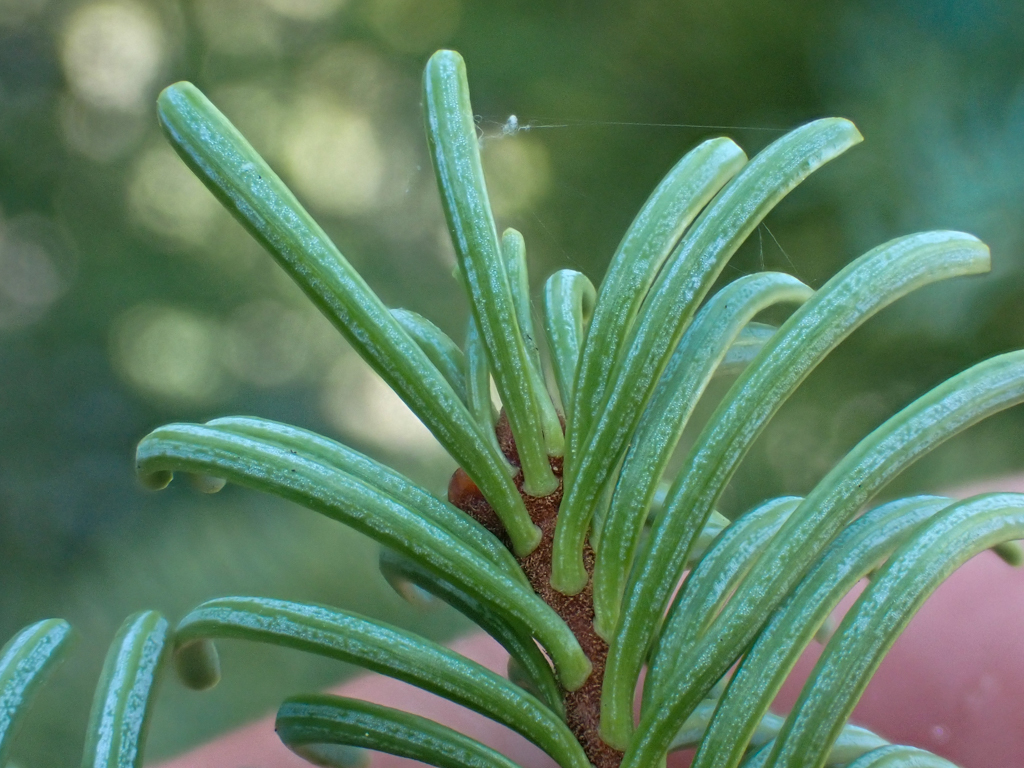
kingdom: Plantae
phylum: Tracheophyta
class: Pinopsida
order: Pinales
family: Pinaceae
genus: Abies
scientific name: Abies magnifica bis
